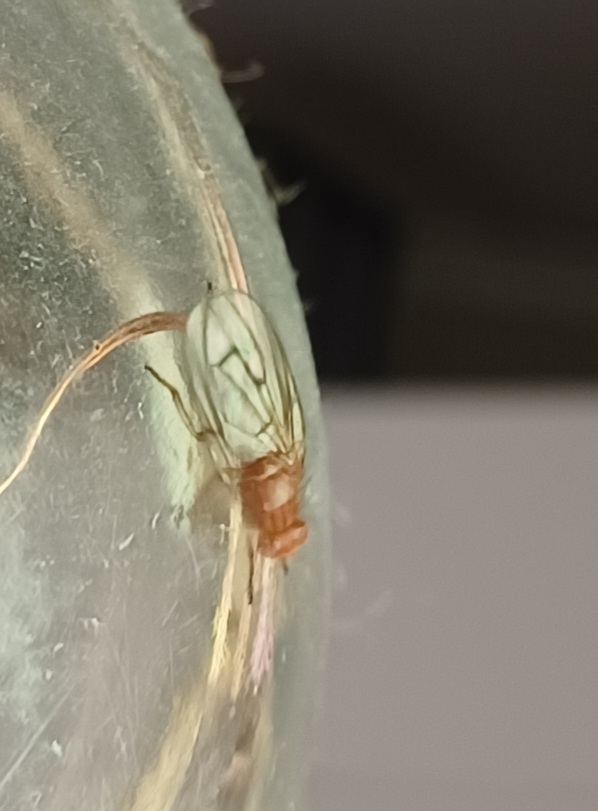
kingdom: Animalia
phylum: Arthropoda
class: Insecta
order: Diptera
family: Dryomyzidae
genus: Dryomyza
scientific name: Dryomyza anilis
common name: Marsh fly
